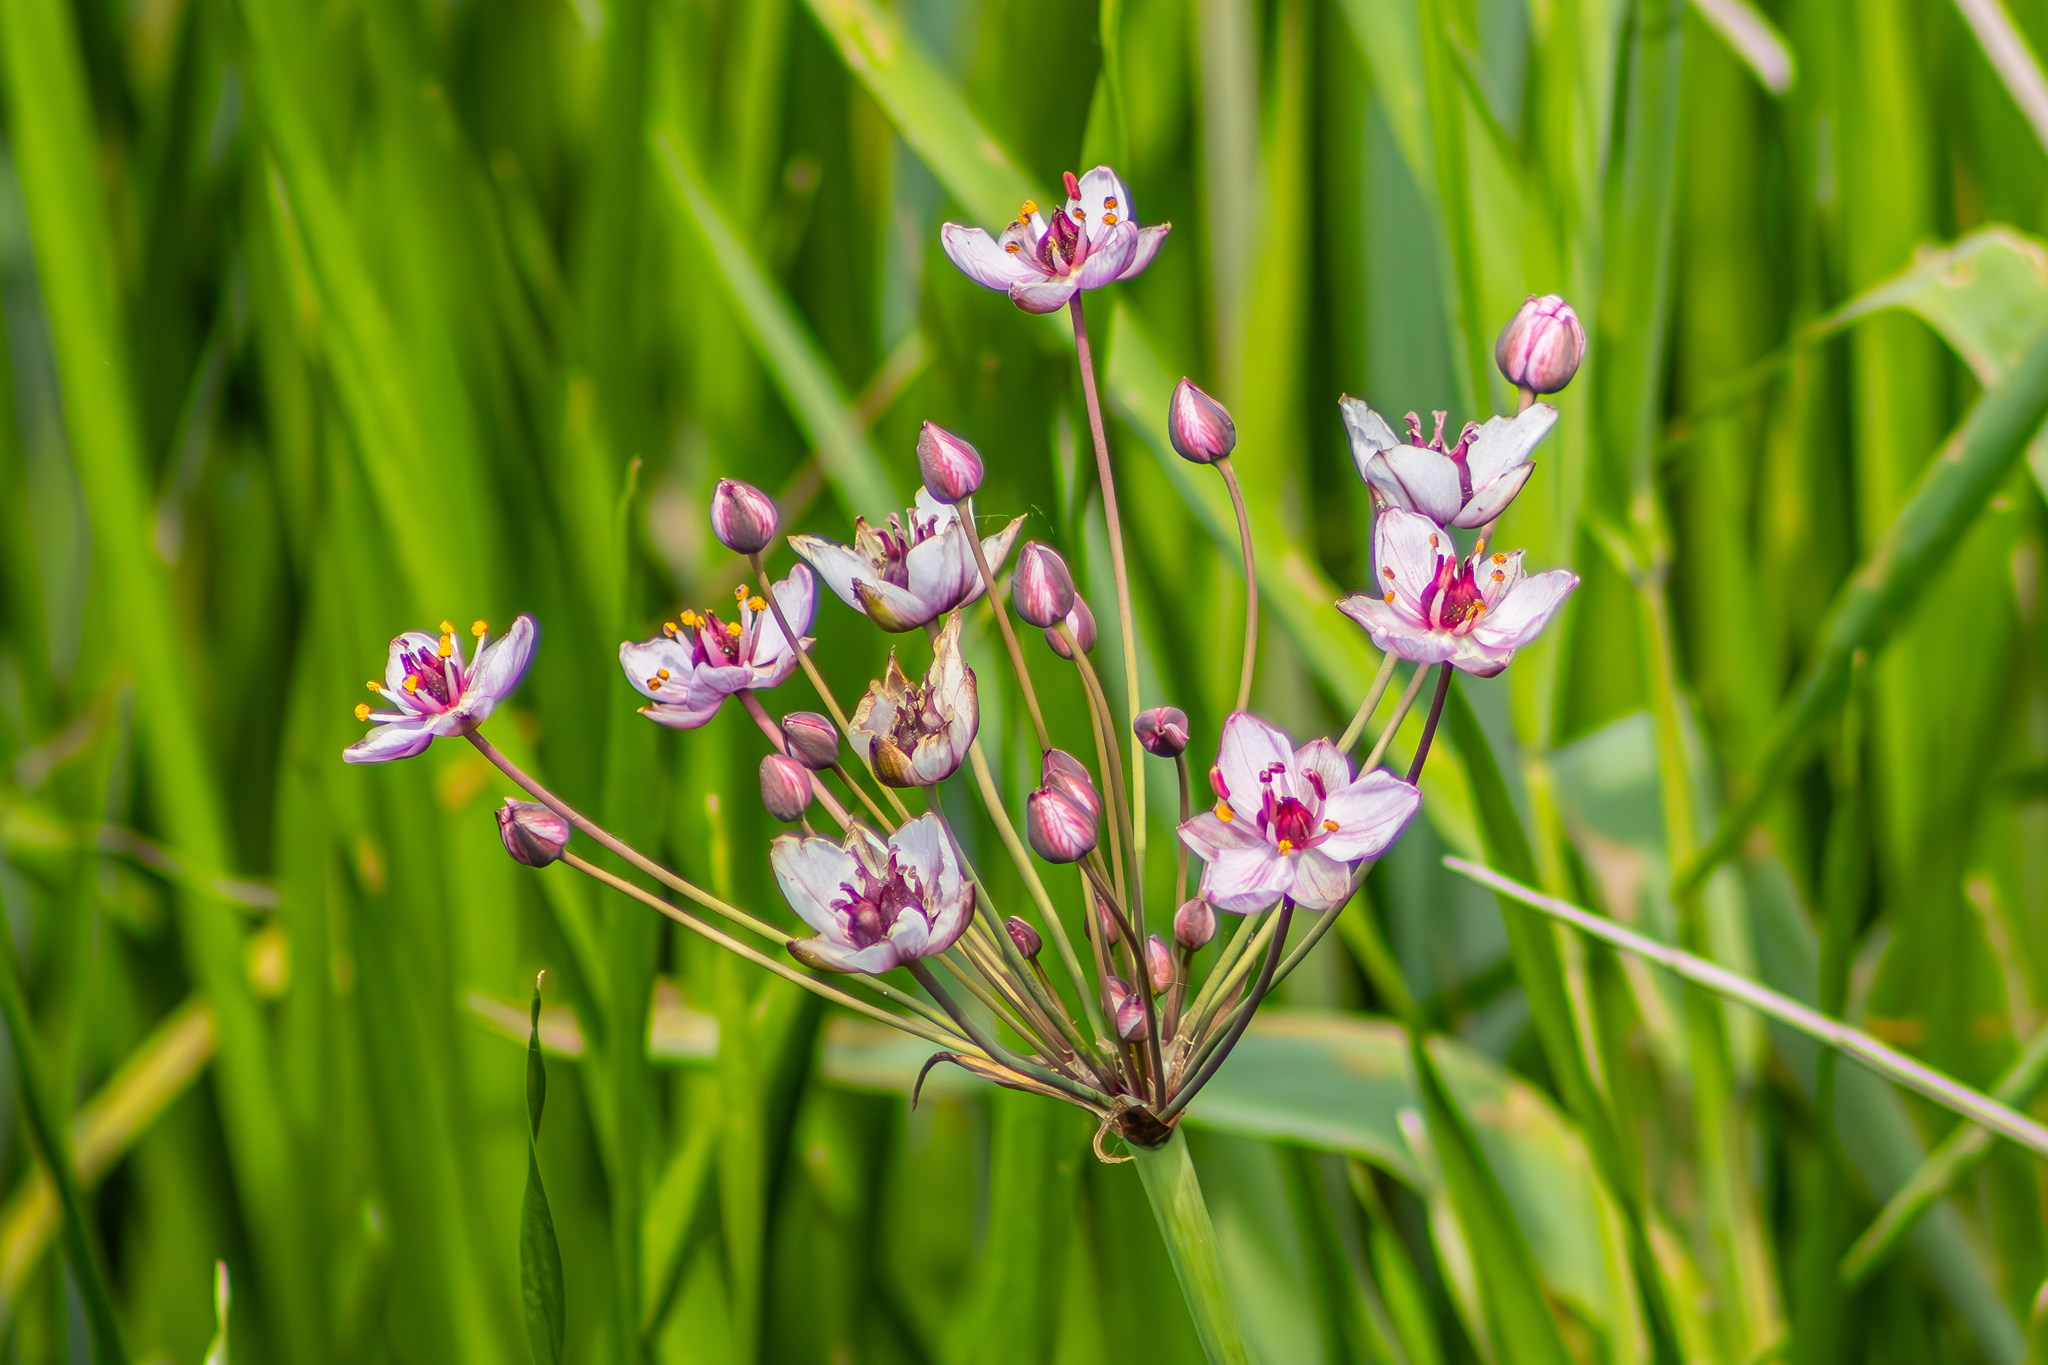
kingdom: Plantae
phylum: Tracheophyta
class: Liliopsida
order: Alismatales
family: Butomaceae
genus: Butomus
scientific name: Butomus umbellatus
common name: Flowering-rush
